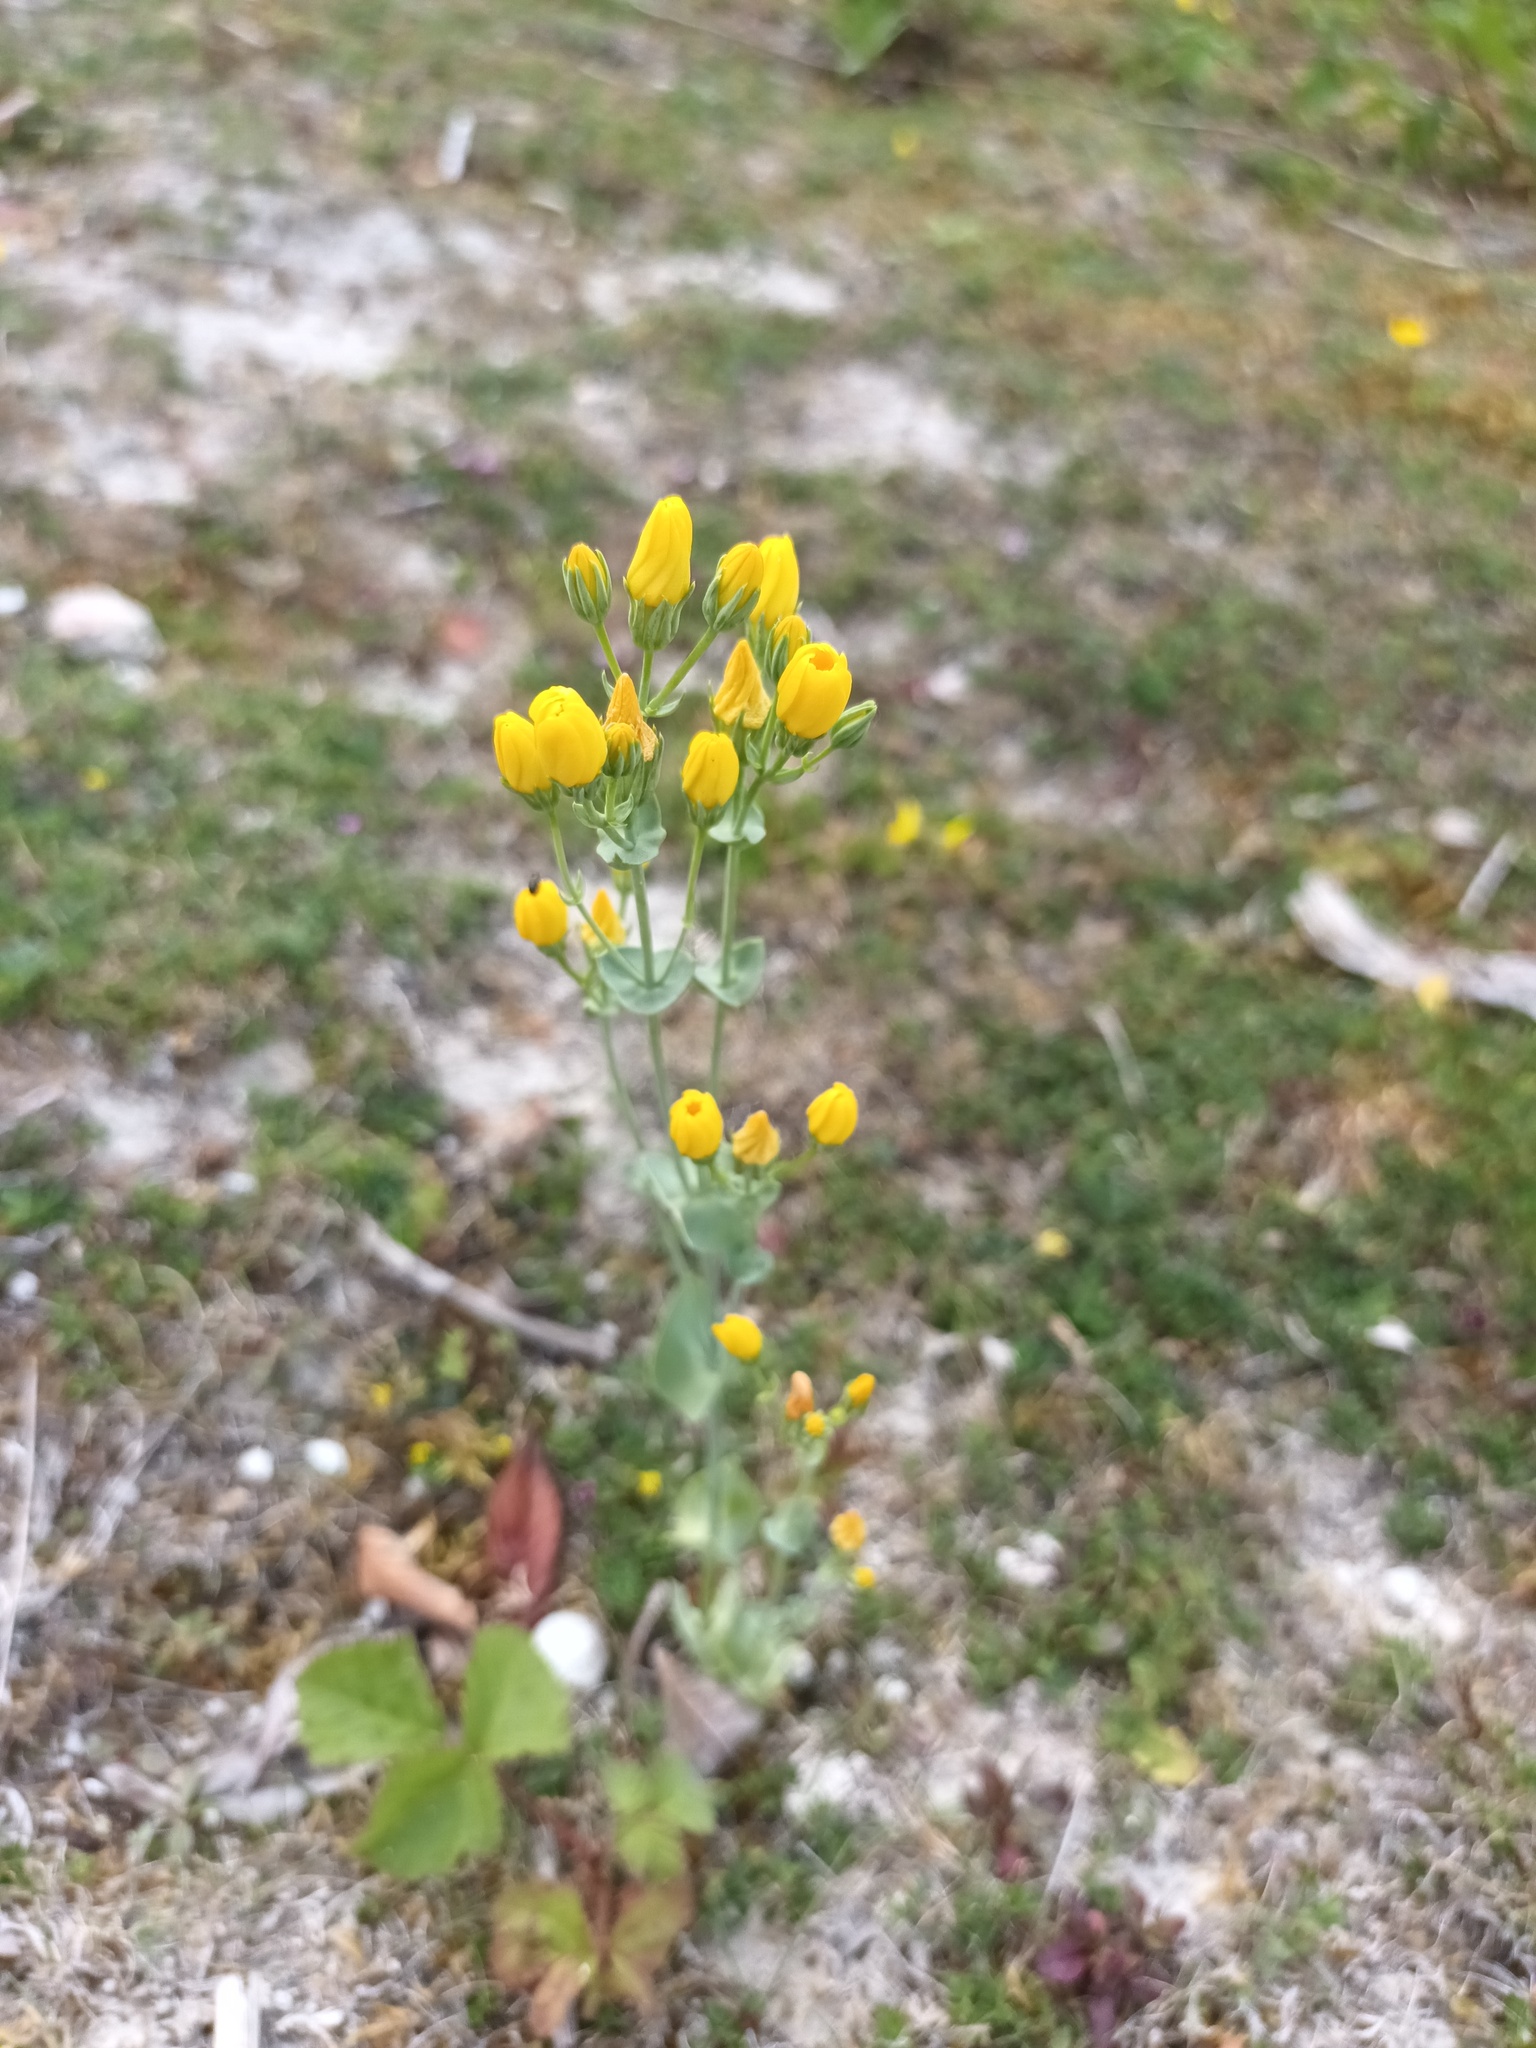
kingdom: Plantae
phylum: Tracheophyta
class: Magnoliopsida
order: Gentianales
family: Gentianaceae
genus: Blackstonia
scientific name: Blackstonia perfoliata
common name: Yellow-wort
